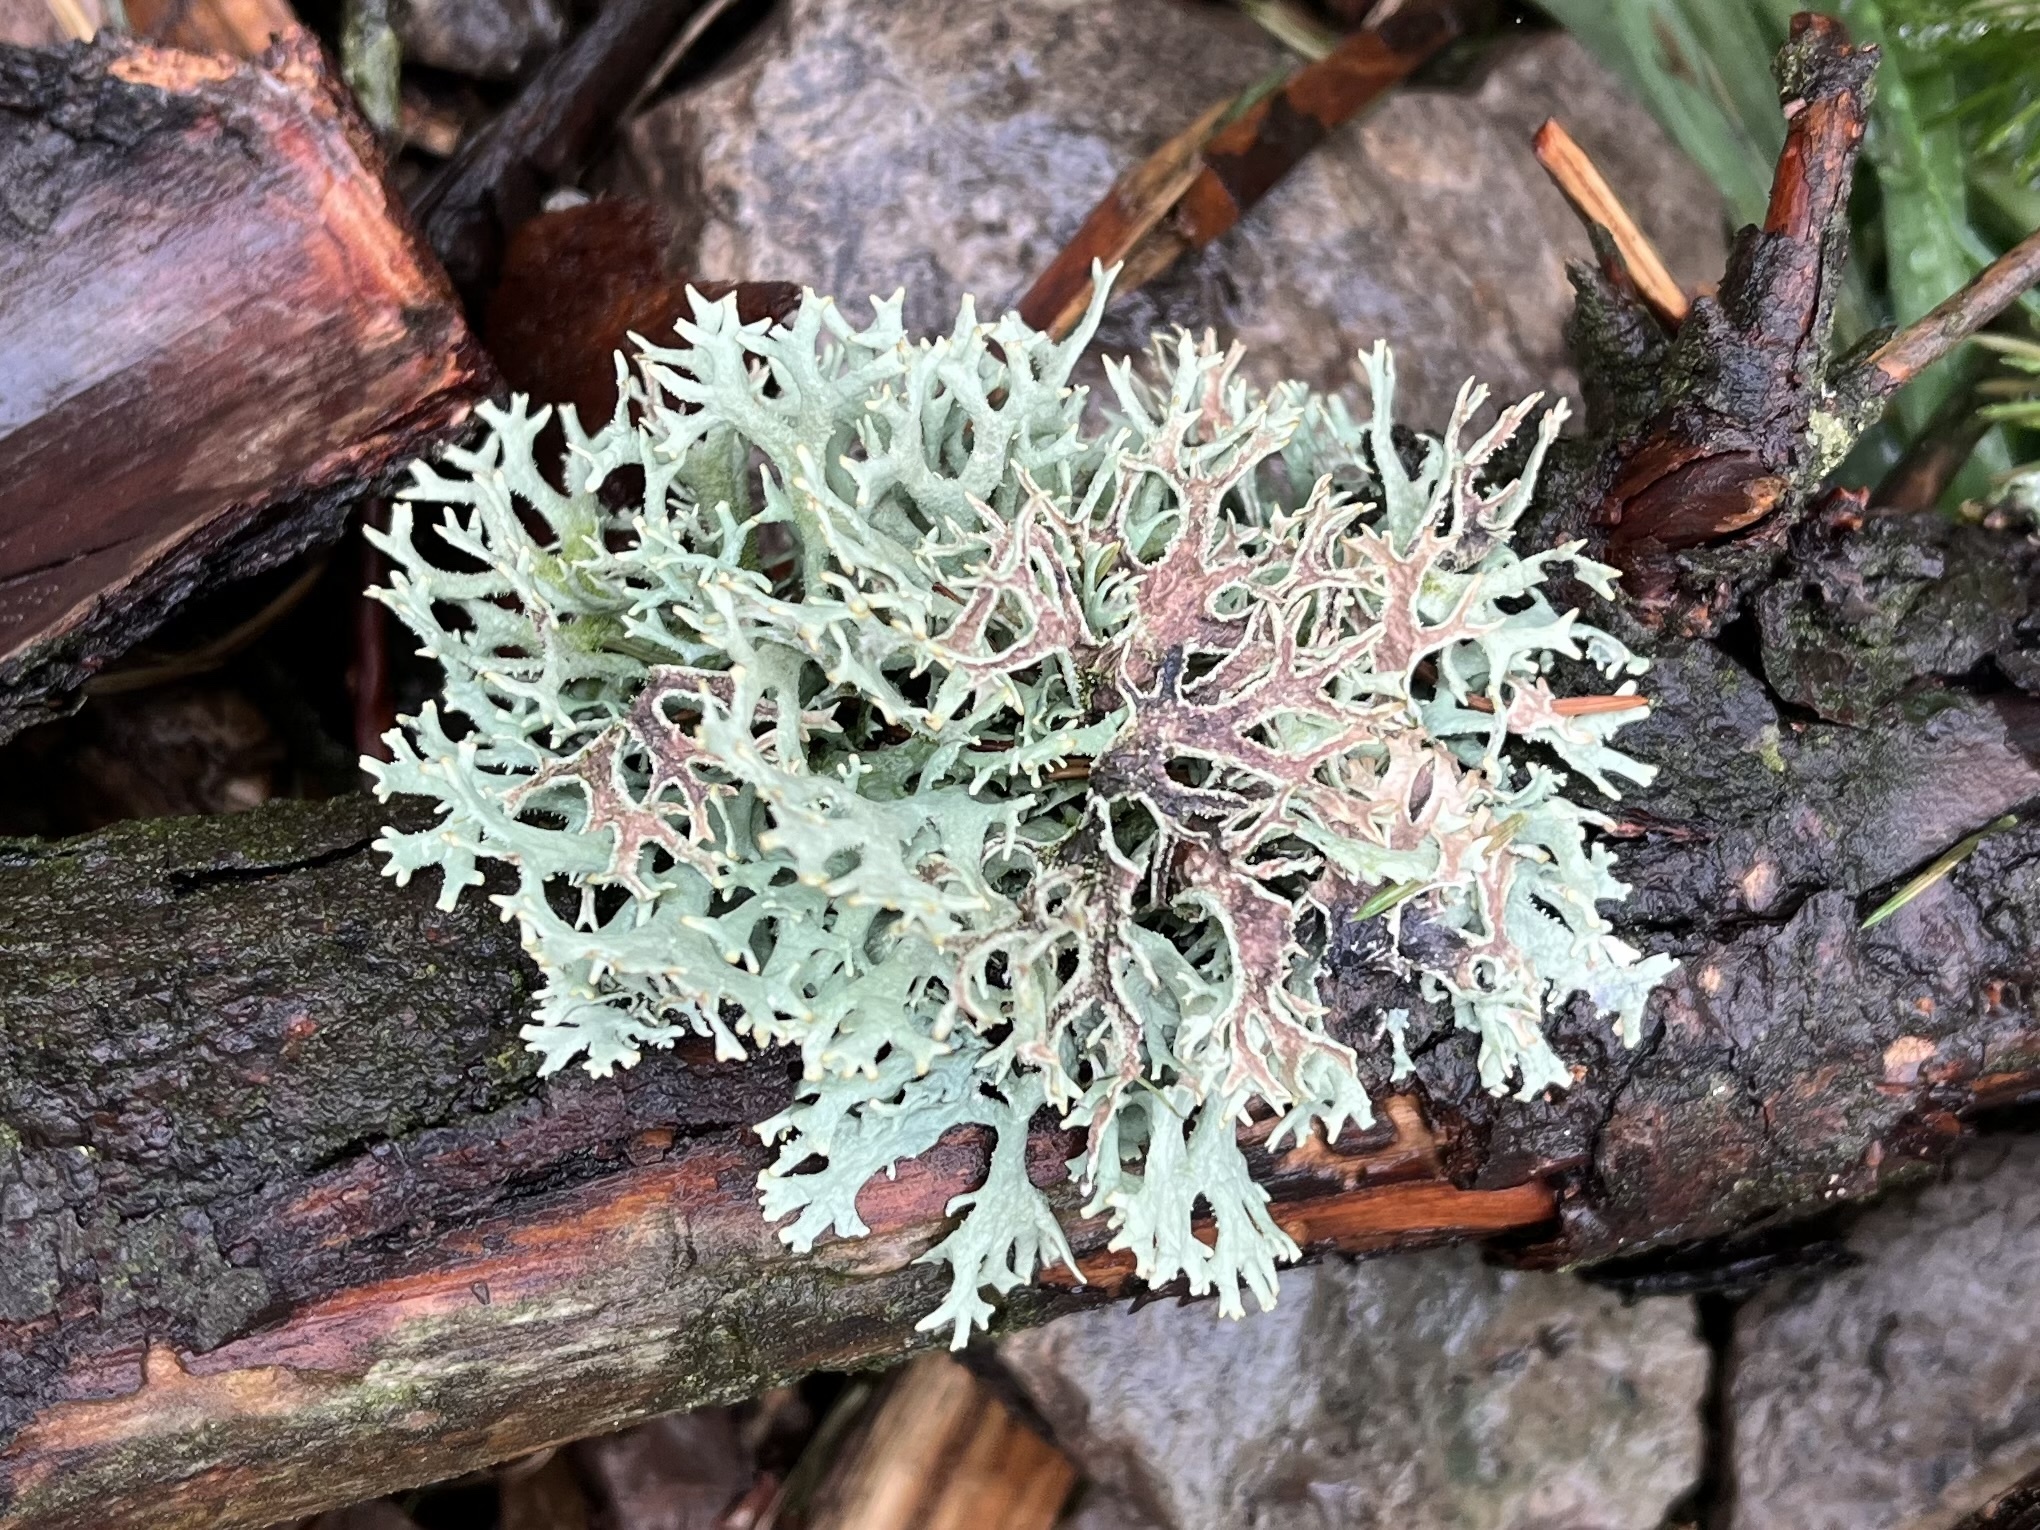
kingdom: Fungi
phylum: Ascomycota
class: Lecanoromycetes
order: Lecanorales
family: Parmeliaceae
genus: Pseudevernia
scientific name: Pseudevernia furfuracea
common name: Tree moss
